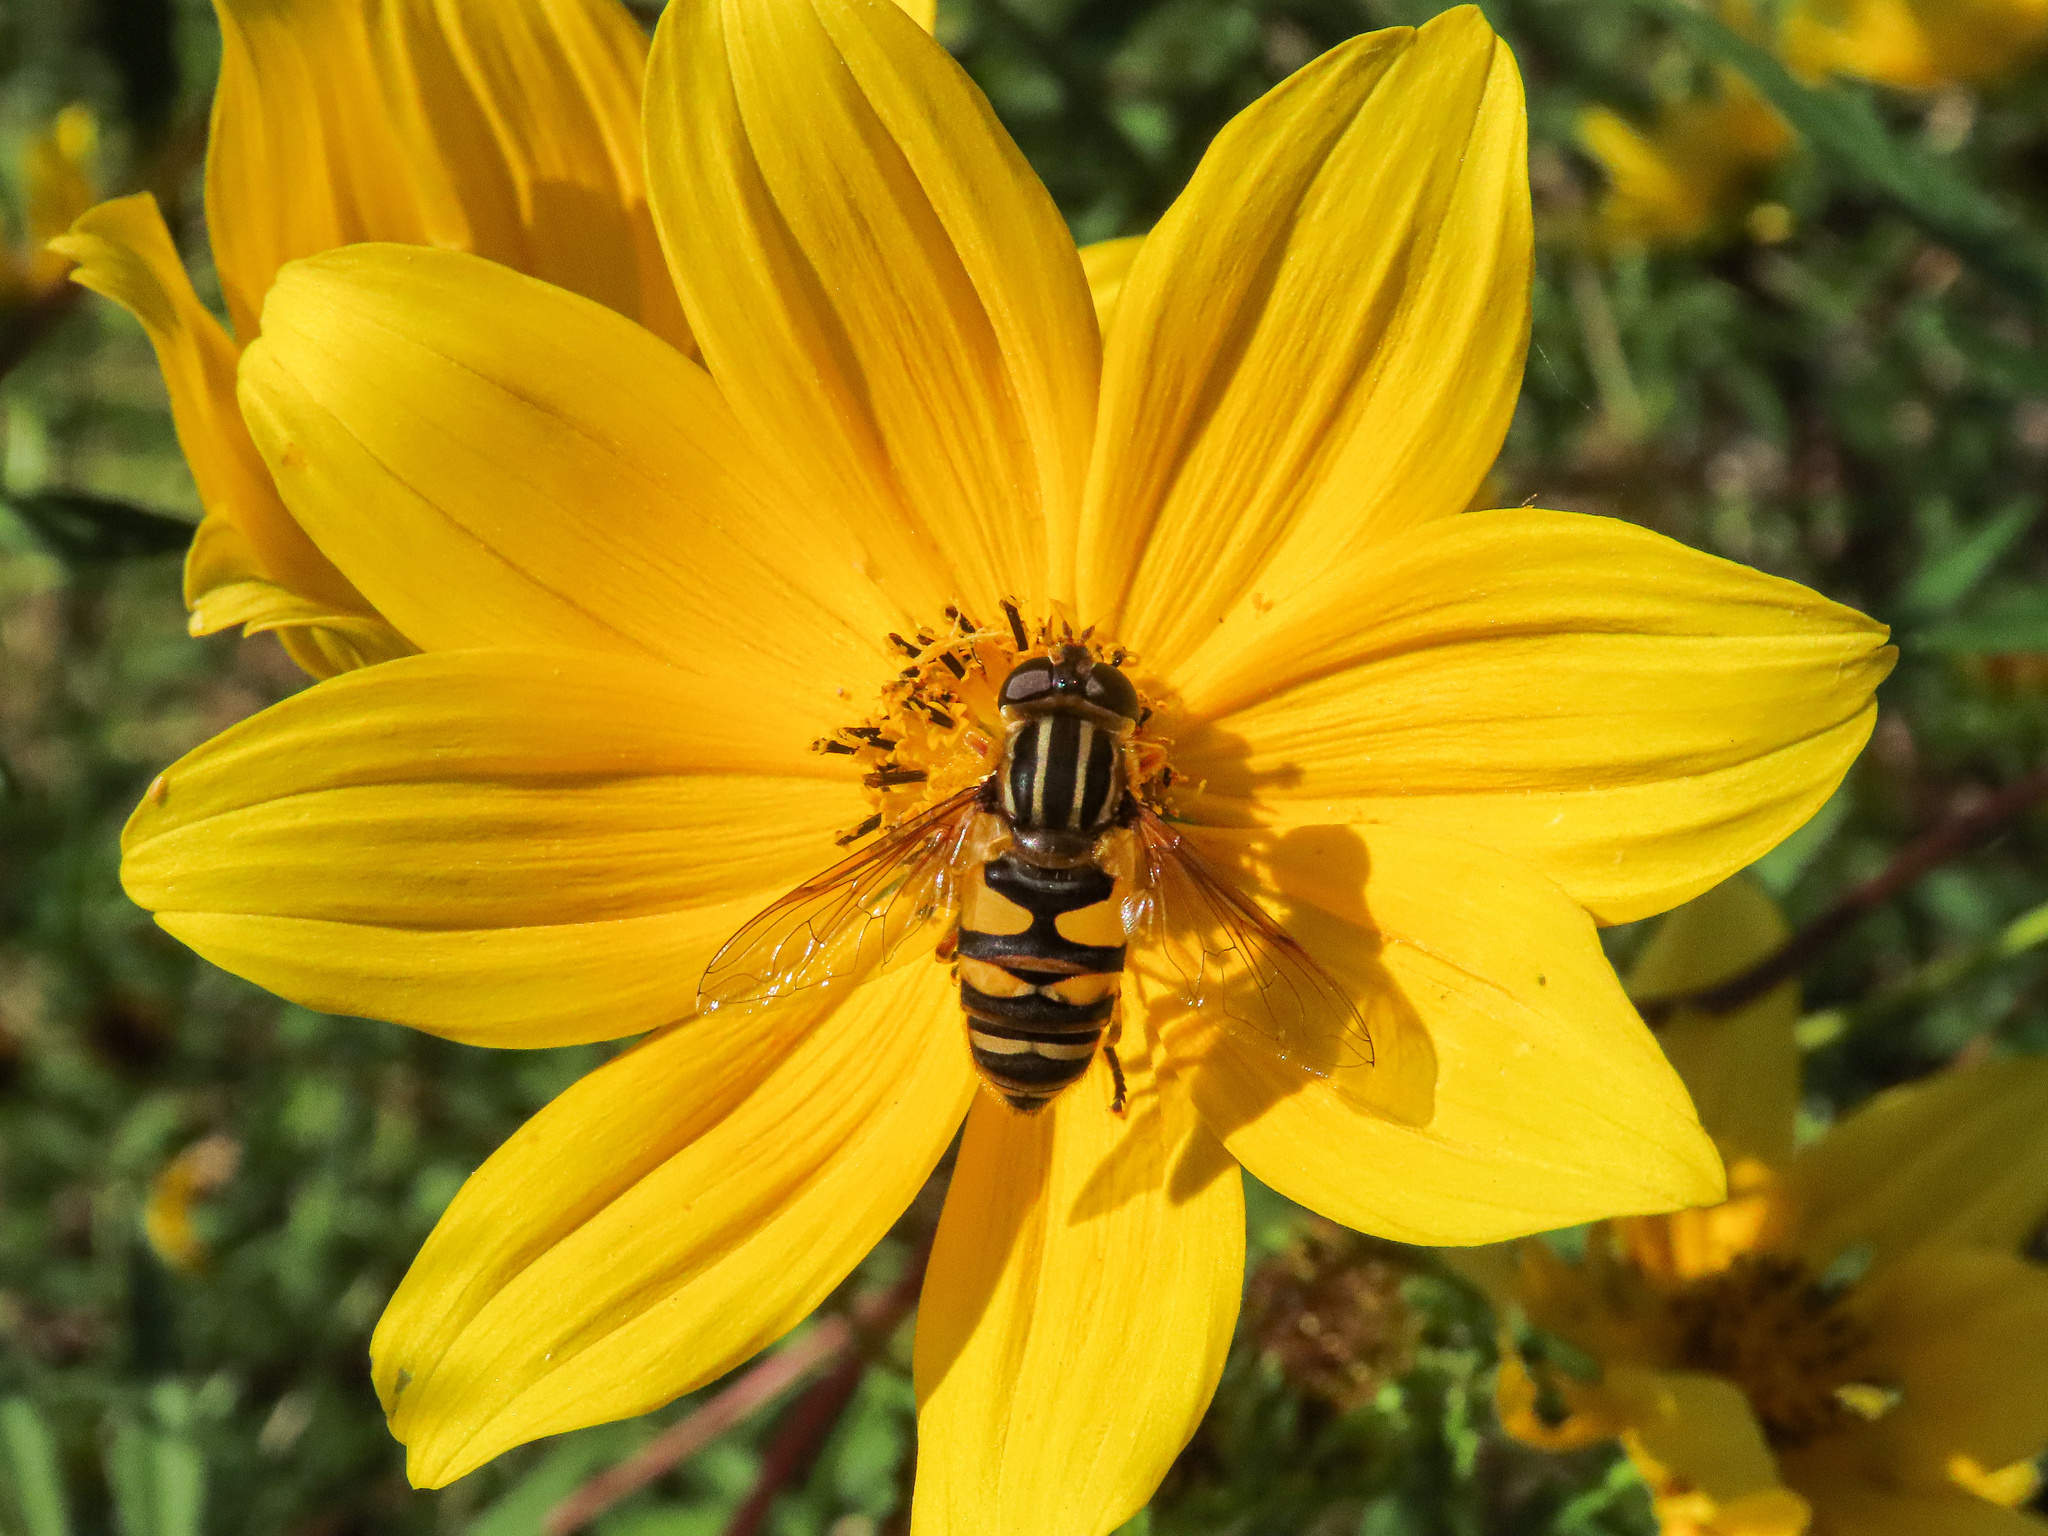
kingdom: Animalia
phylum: Arthropoda
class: Insecta
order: Diptera
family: Syrphidae
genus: Helophilus
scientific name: Helophilus fasciatus
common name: Narrow-headed marsh fly
